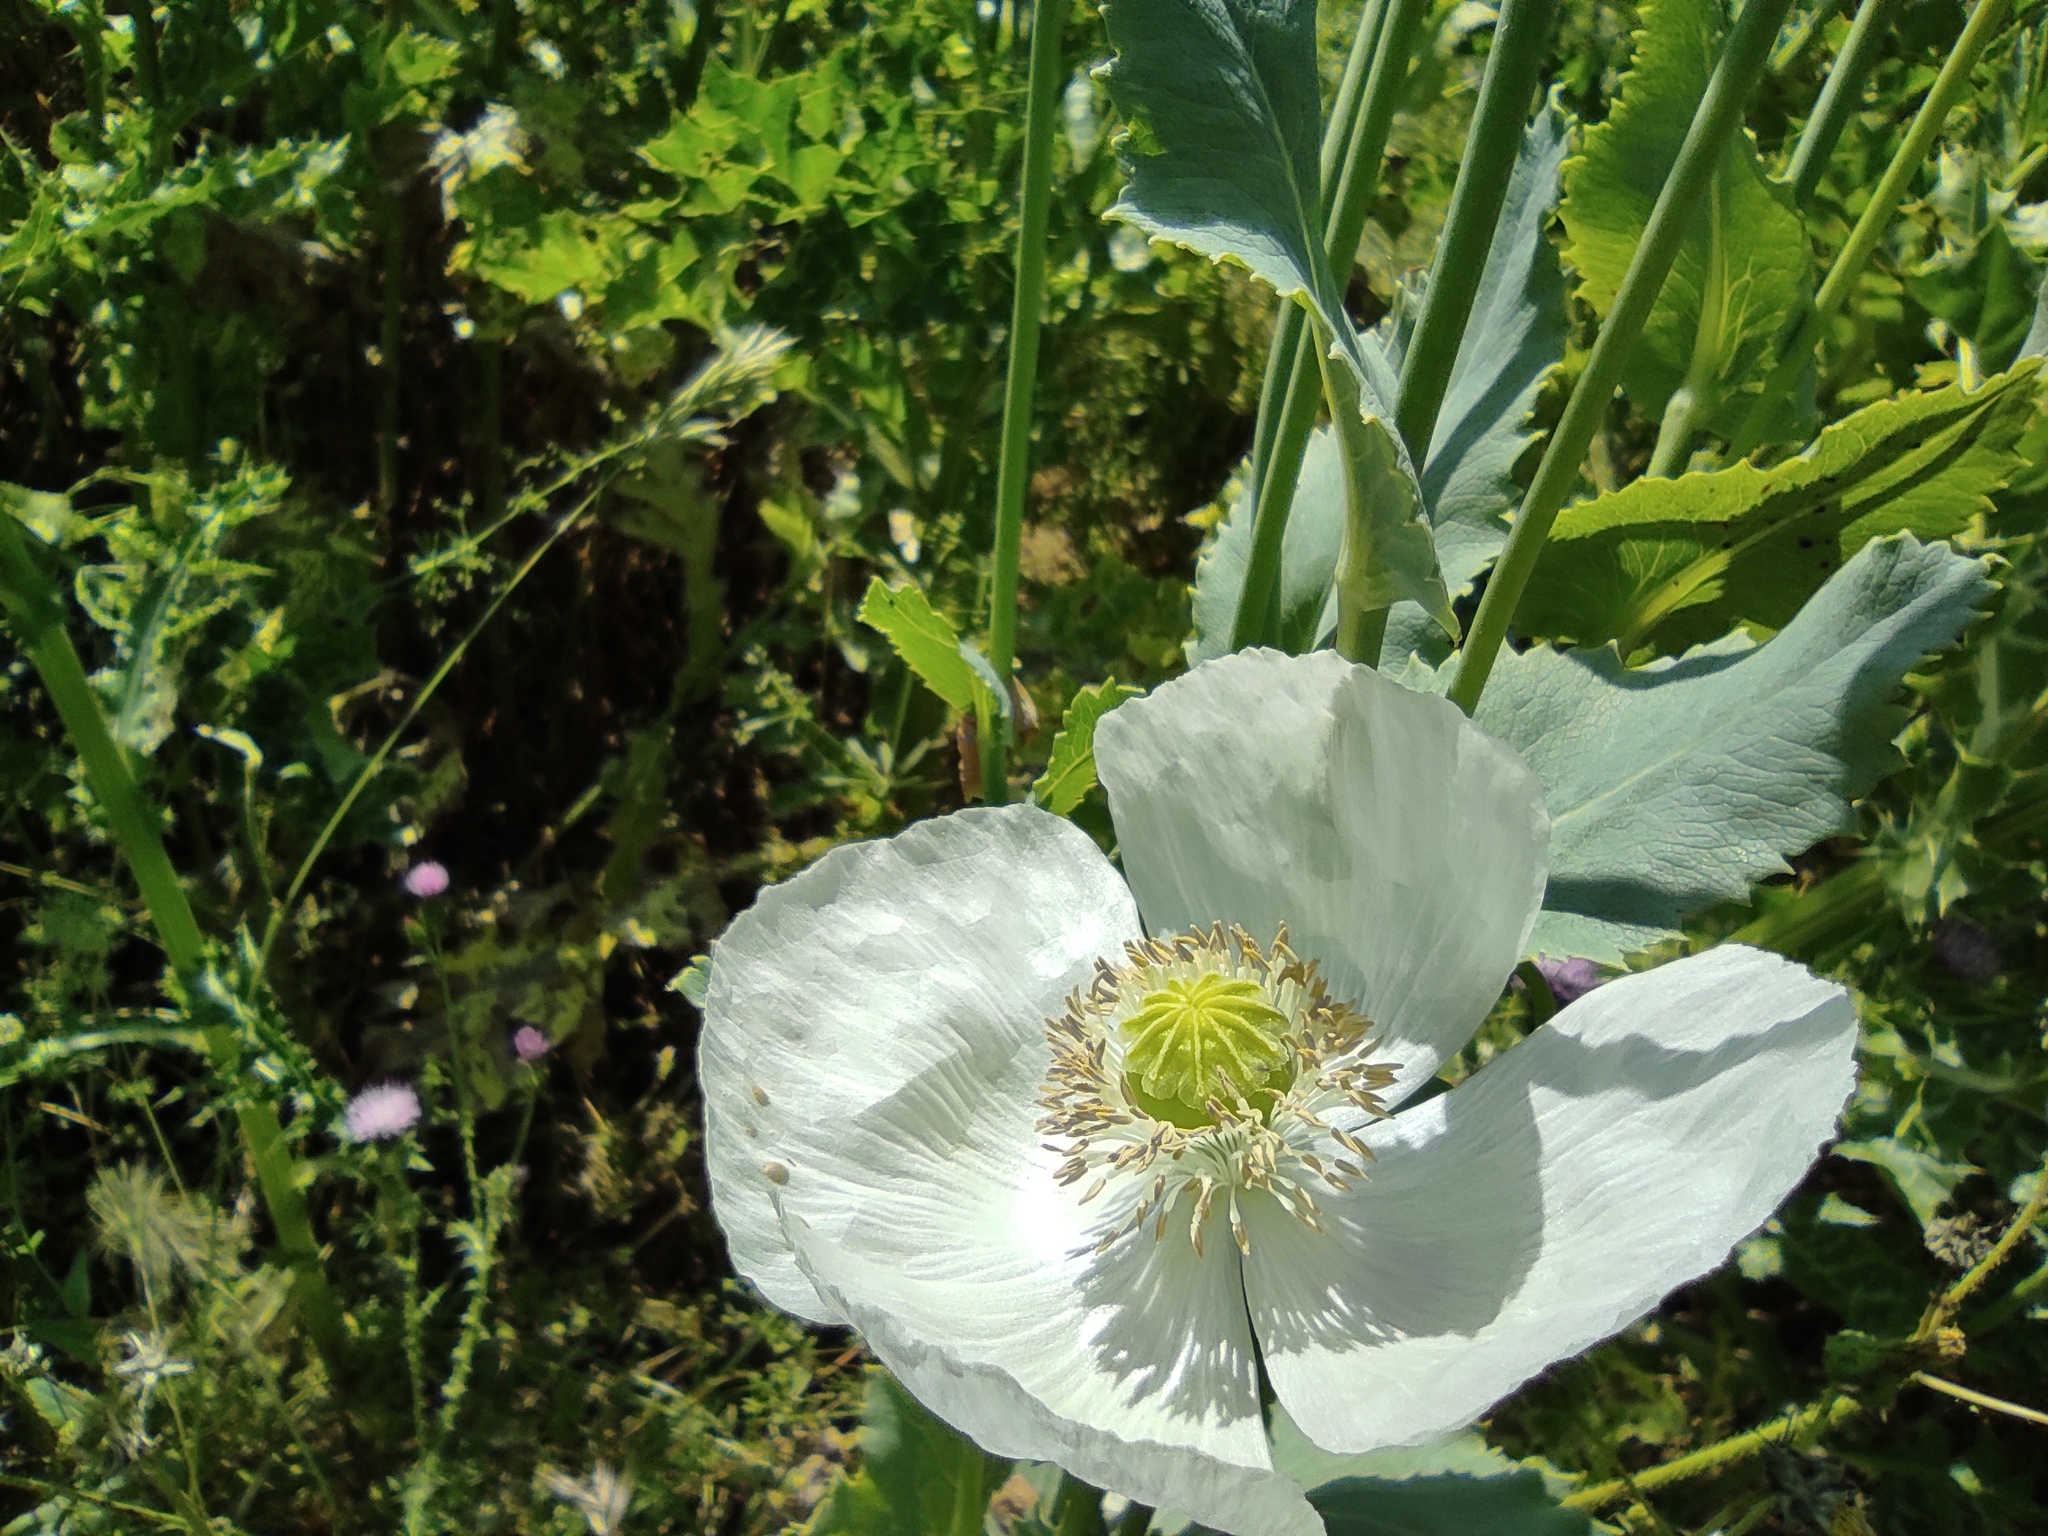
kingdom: Plantae
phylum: Tracheophyta
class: Magnoliopsida
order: Ranunculales
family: Papaveraceae
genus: Papaver
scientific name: Papaver somniferum
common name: Opium poppy
